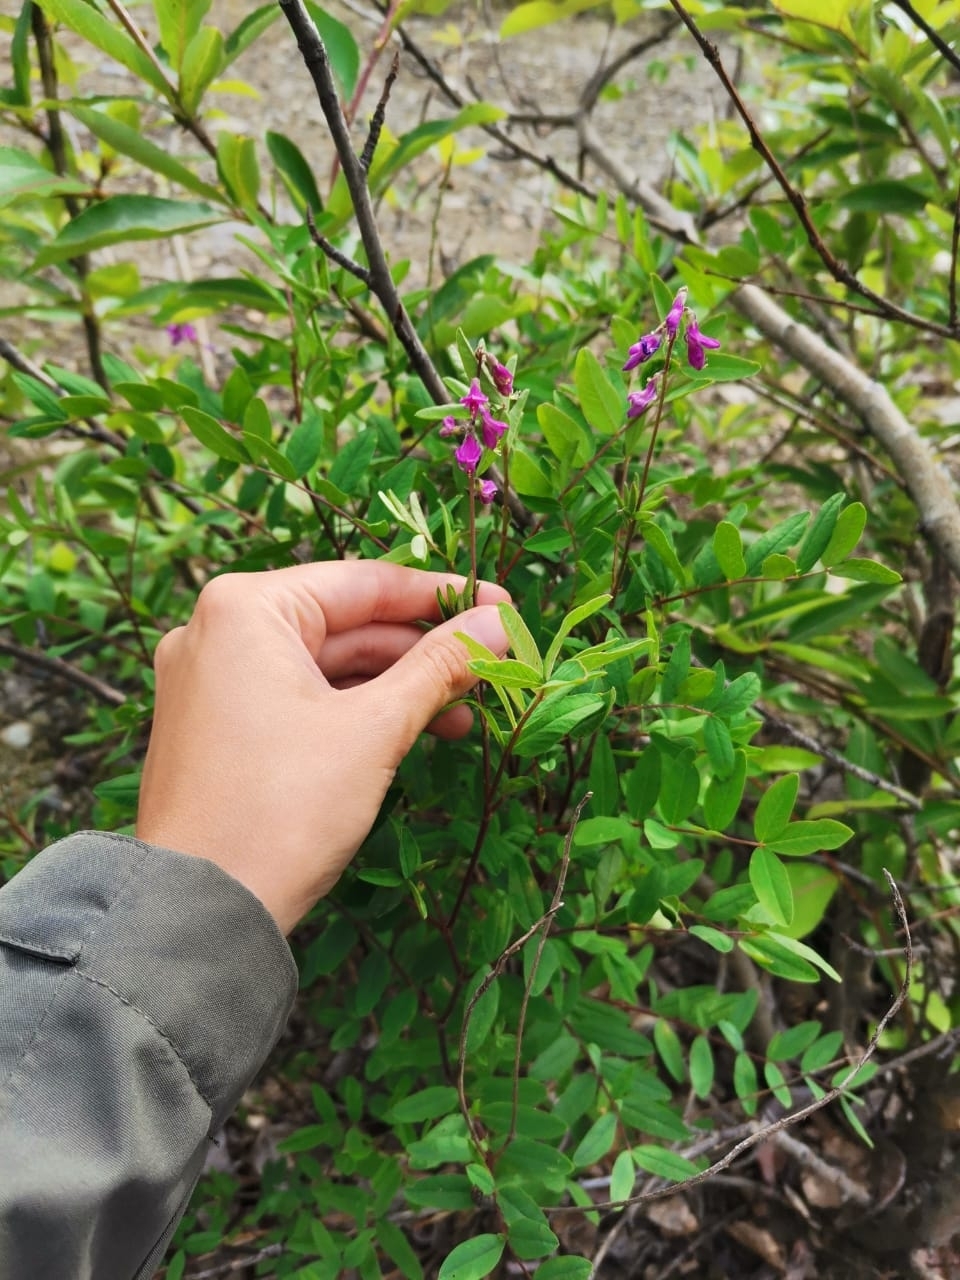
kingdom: Plantae
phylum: Tracheophyta
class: Magnoliopsida
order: Fabales
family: Fabaceae
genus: Hedysarum
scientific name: Hedysarum hedysaroides
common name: Alpine french-honeysuckle
